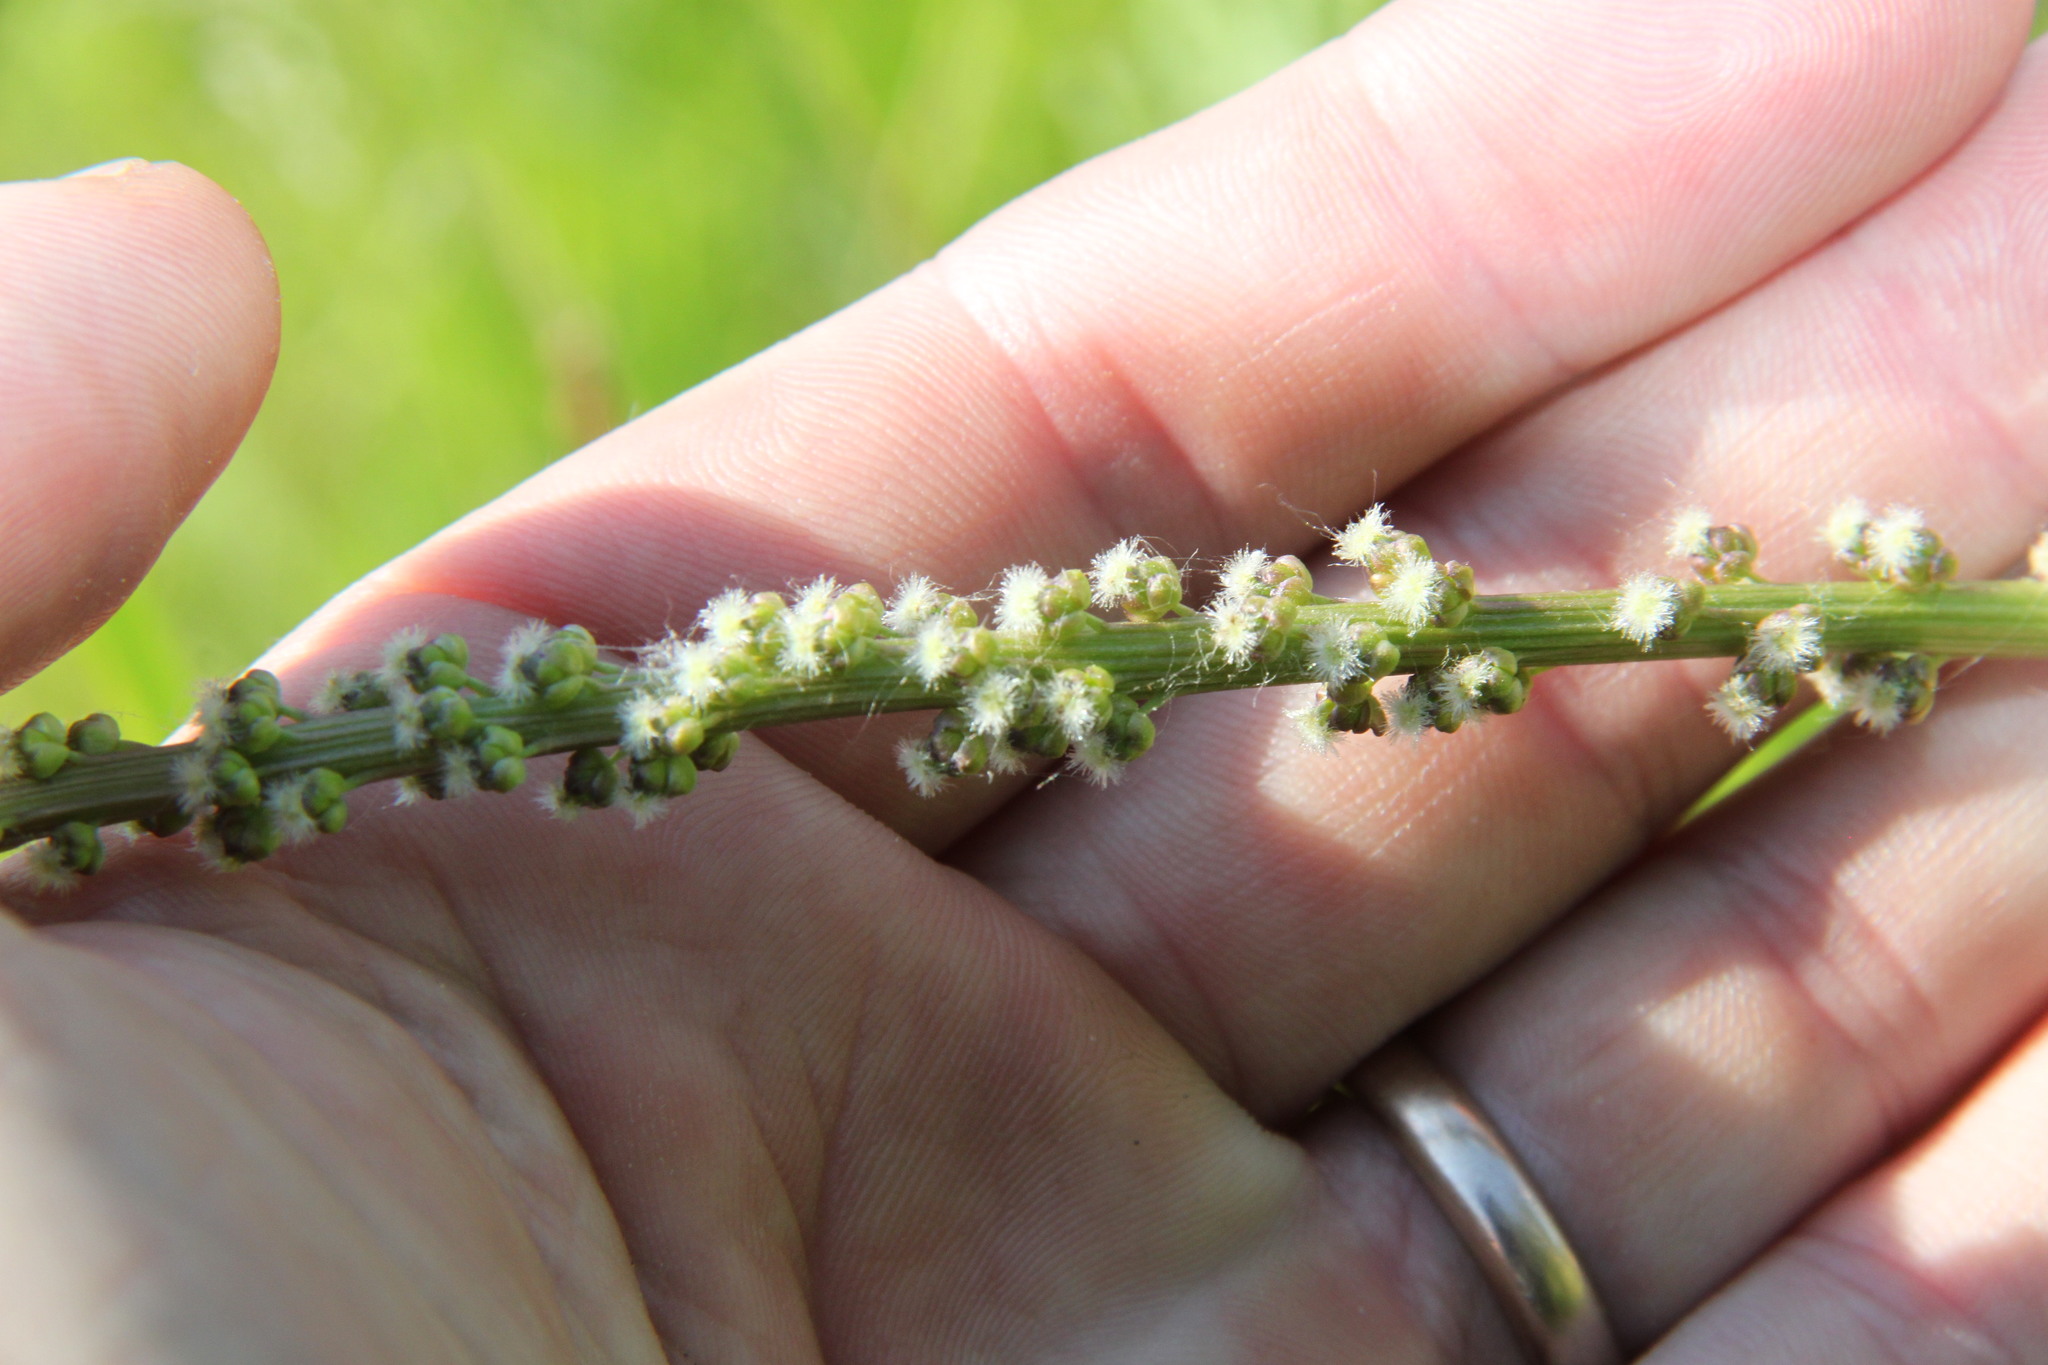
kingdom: Plantae
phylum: Tracheophyta
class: Liliopsida
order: Alismatales
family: Juncaginaceae
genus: Triglochin
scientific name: Triglochin maritima
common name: Sea arrowgrass
